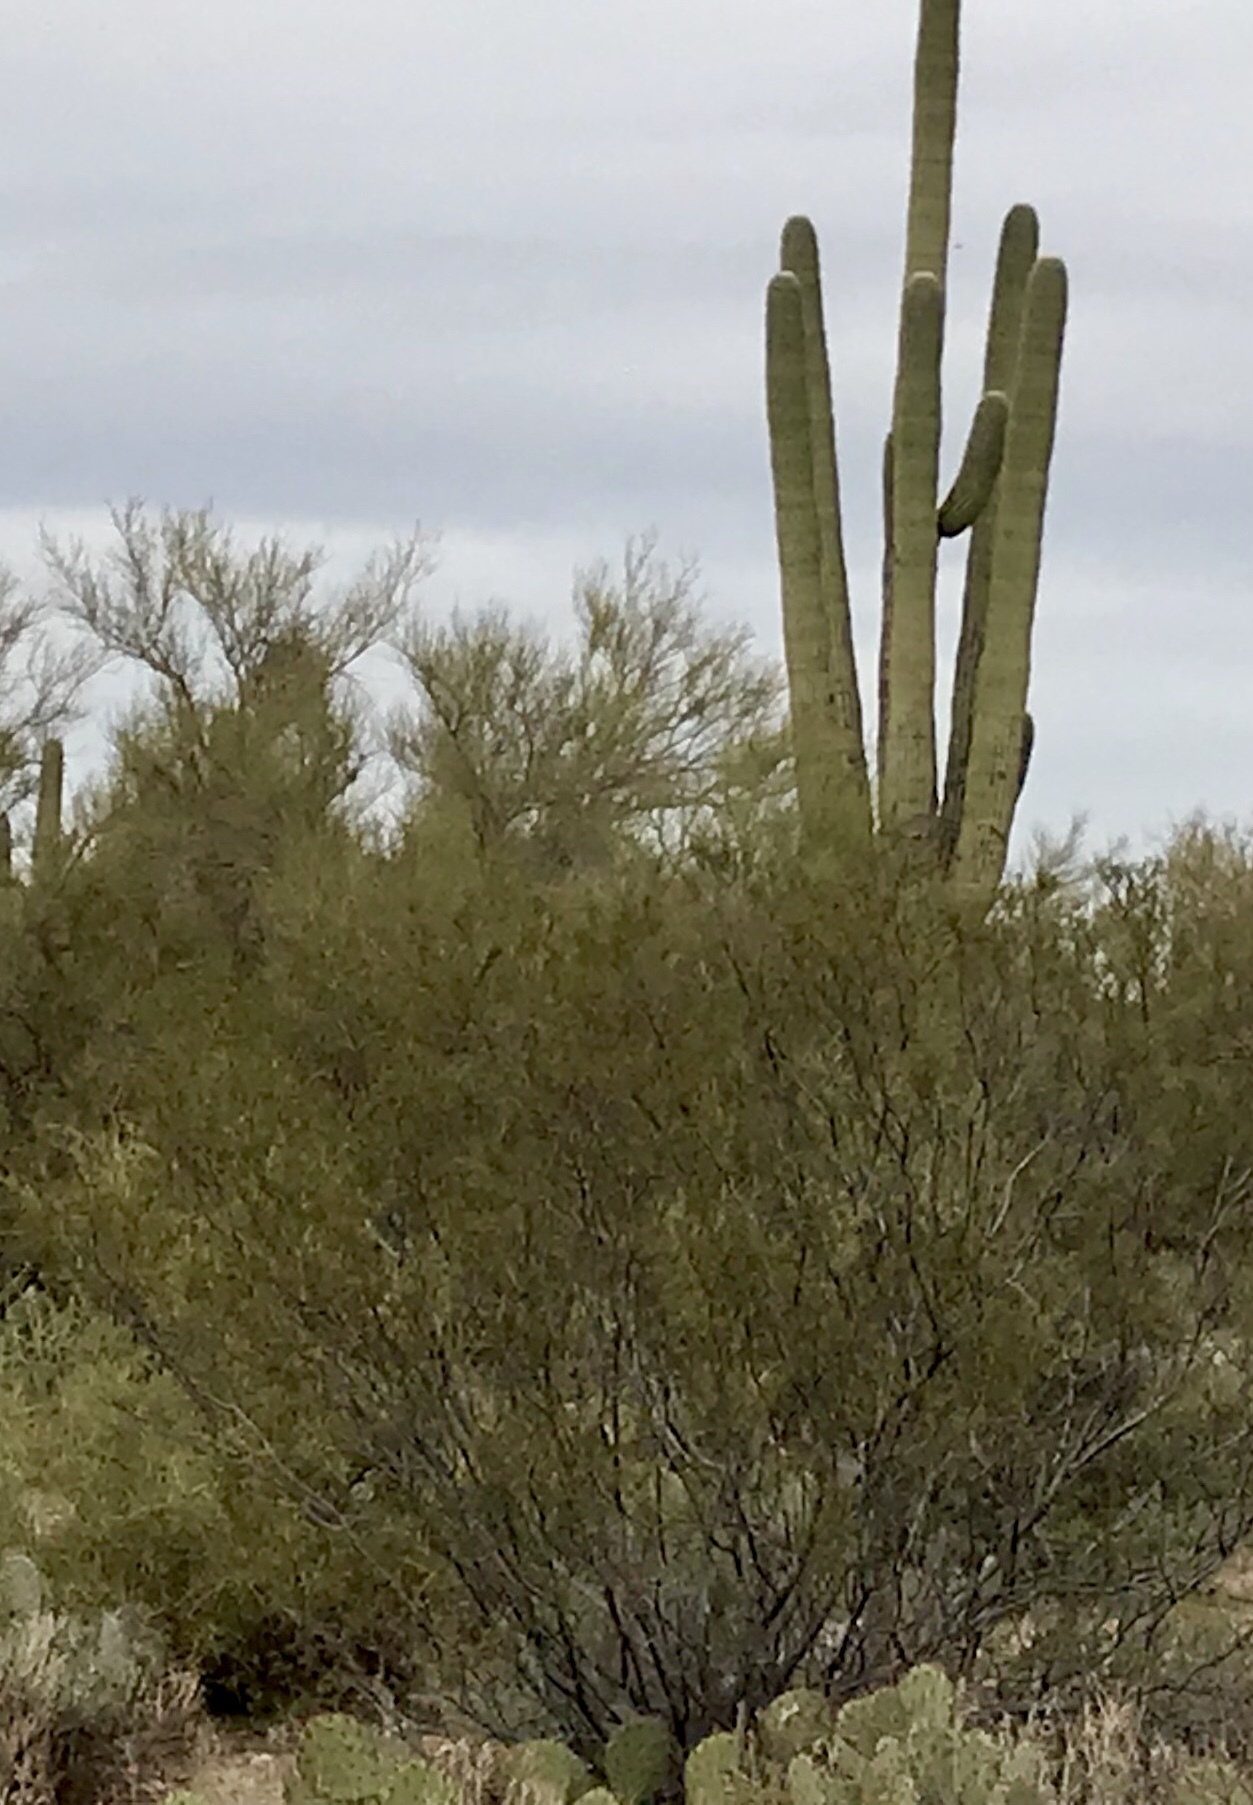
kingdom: Plantae
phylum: Tracheophyta
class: Magnoliopsida
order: Zygophyllales
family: Zygophyllaceae
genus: Larrea
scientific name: Larrea tridentata
